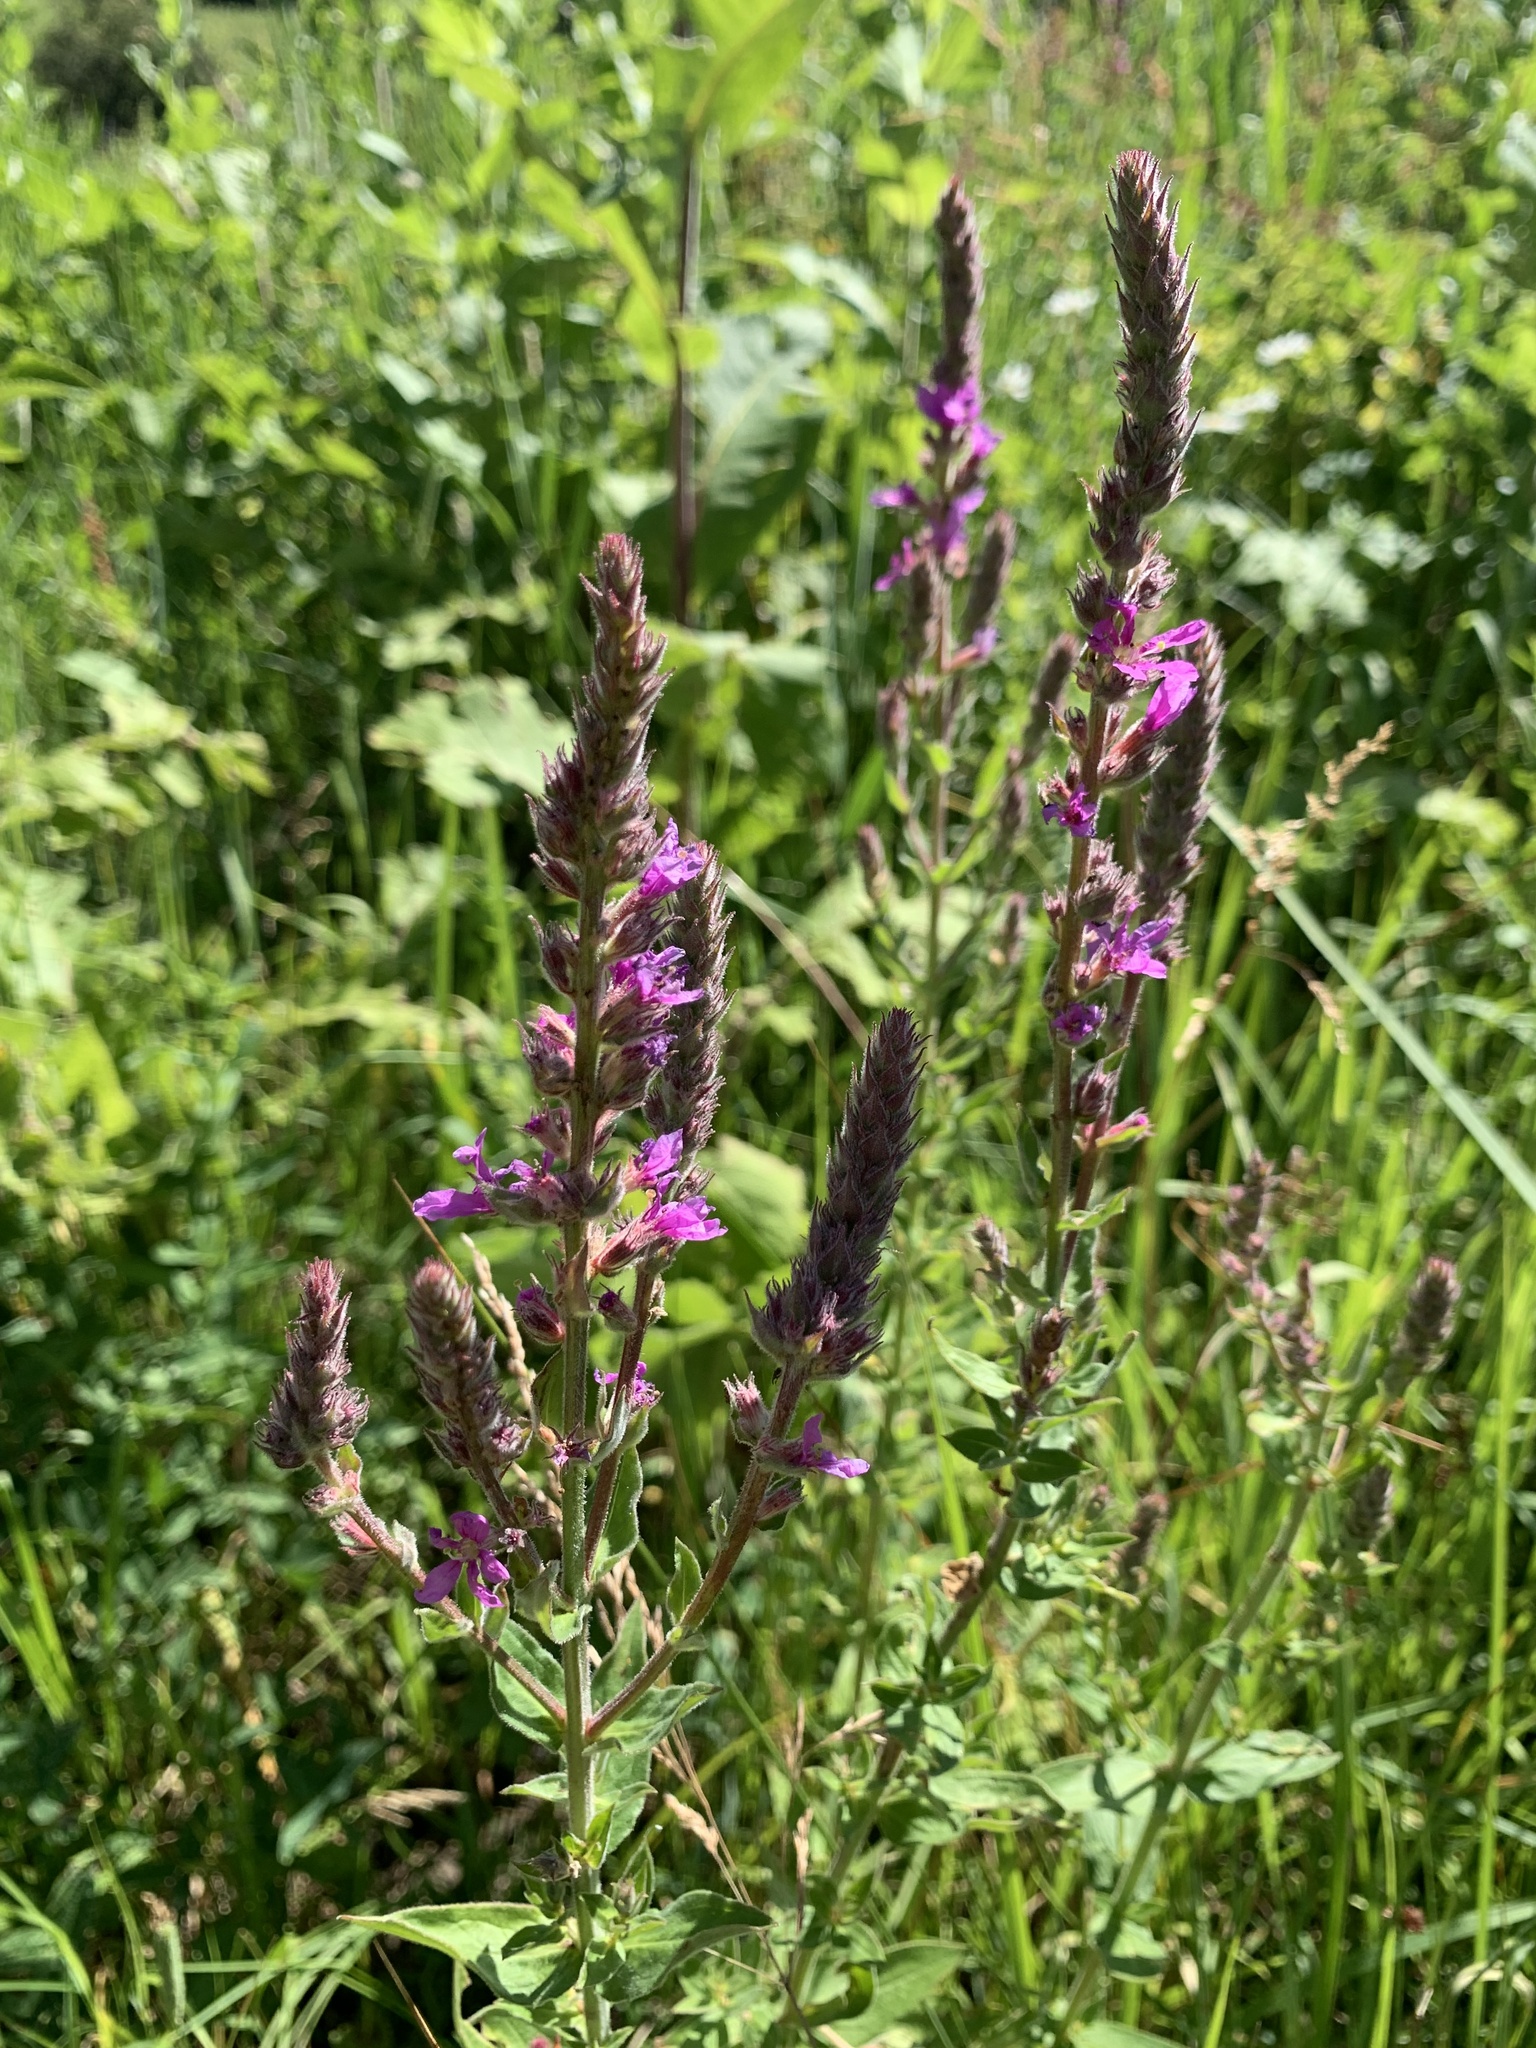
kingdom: Plantae
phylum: Tracheophyta
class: Magnoliopsida
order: Myrtales
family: Lythraceae
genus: Lythrum
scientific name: Lythrum salicaria
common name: Purple loosestrife
